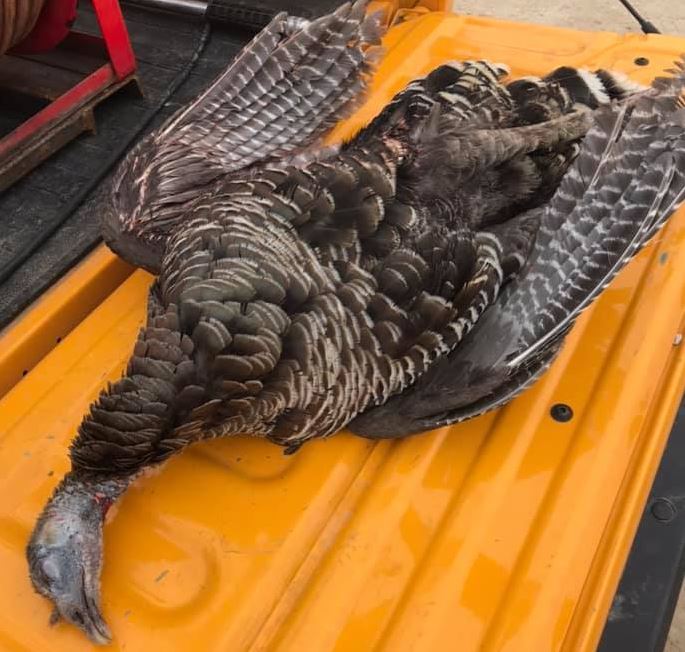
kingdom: Animalia
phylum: Chordata
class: Aves
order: Galliformes
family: Phasianidae
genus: Meleagris
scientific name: Meleagris gallopavo
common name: Wild turkey
